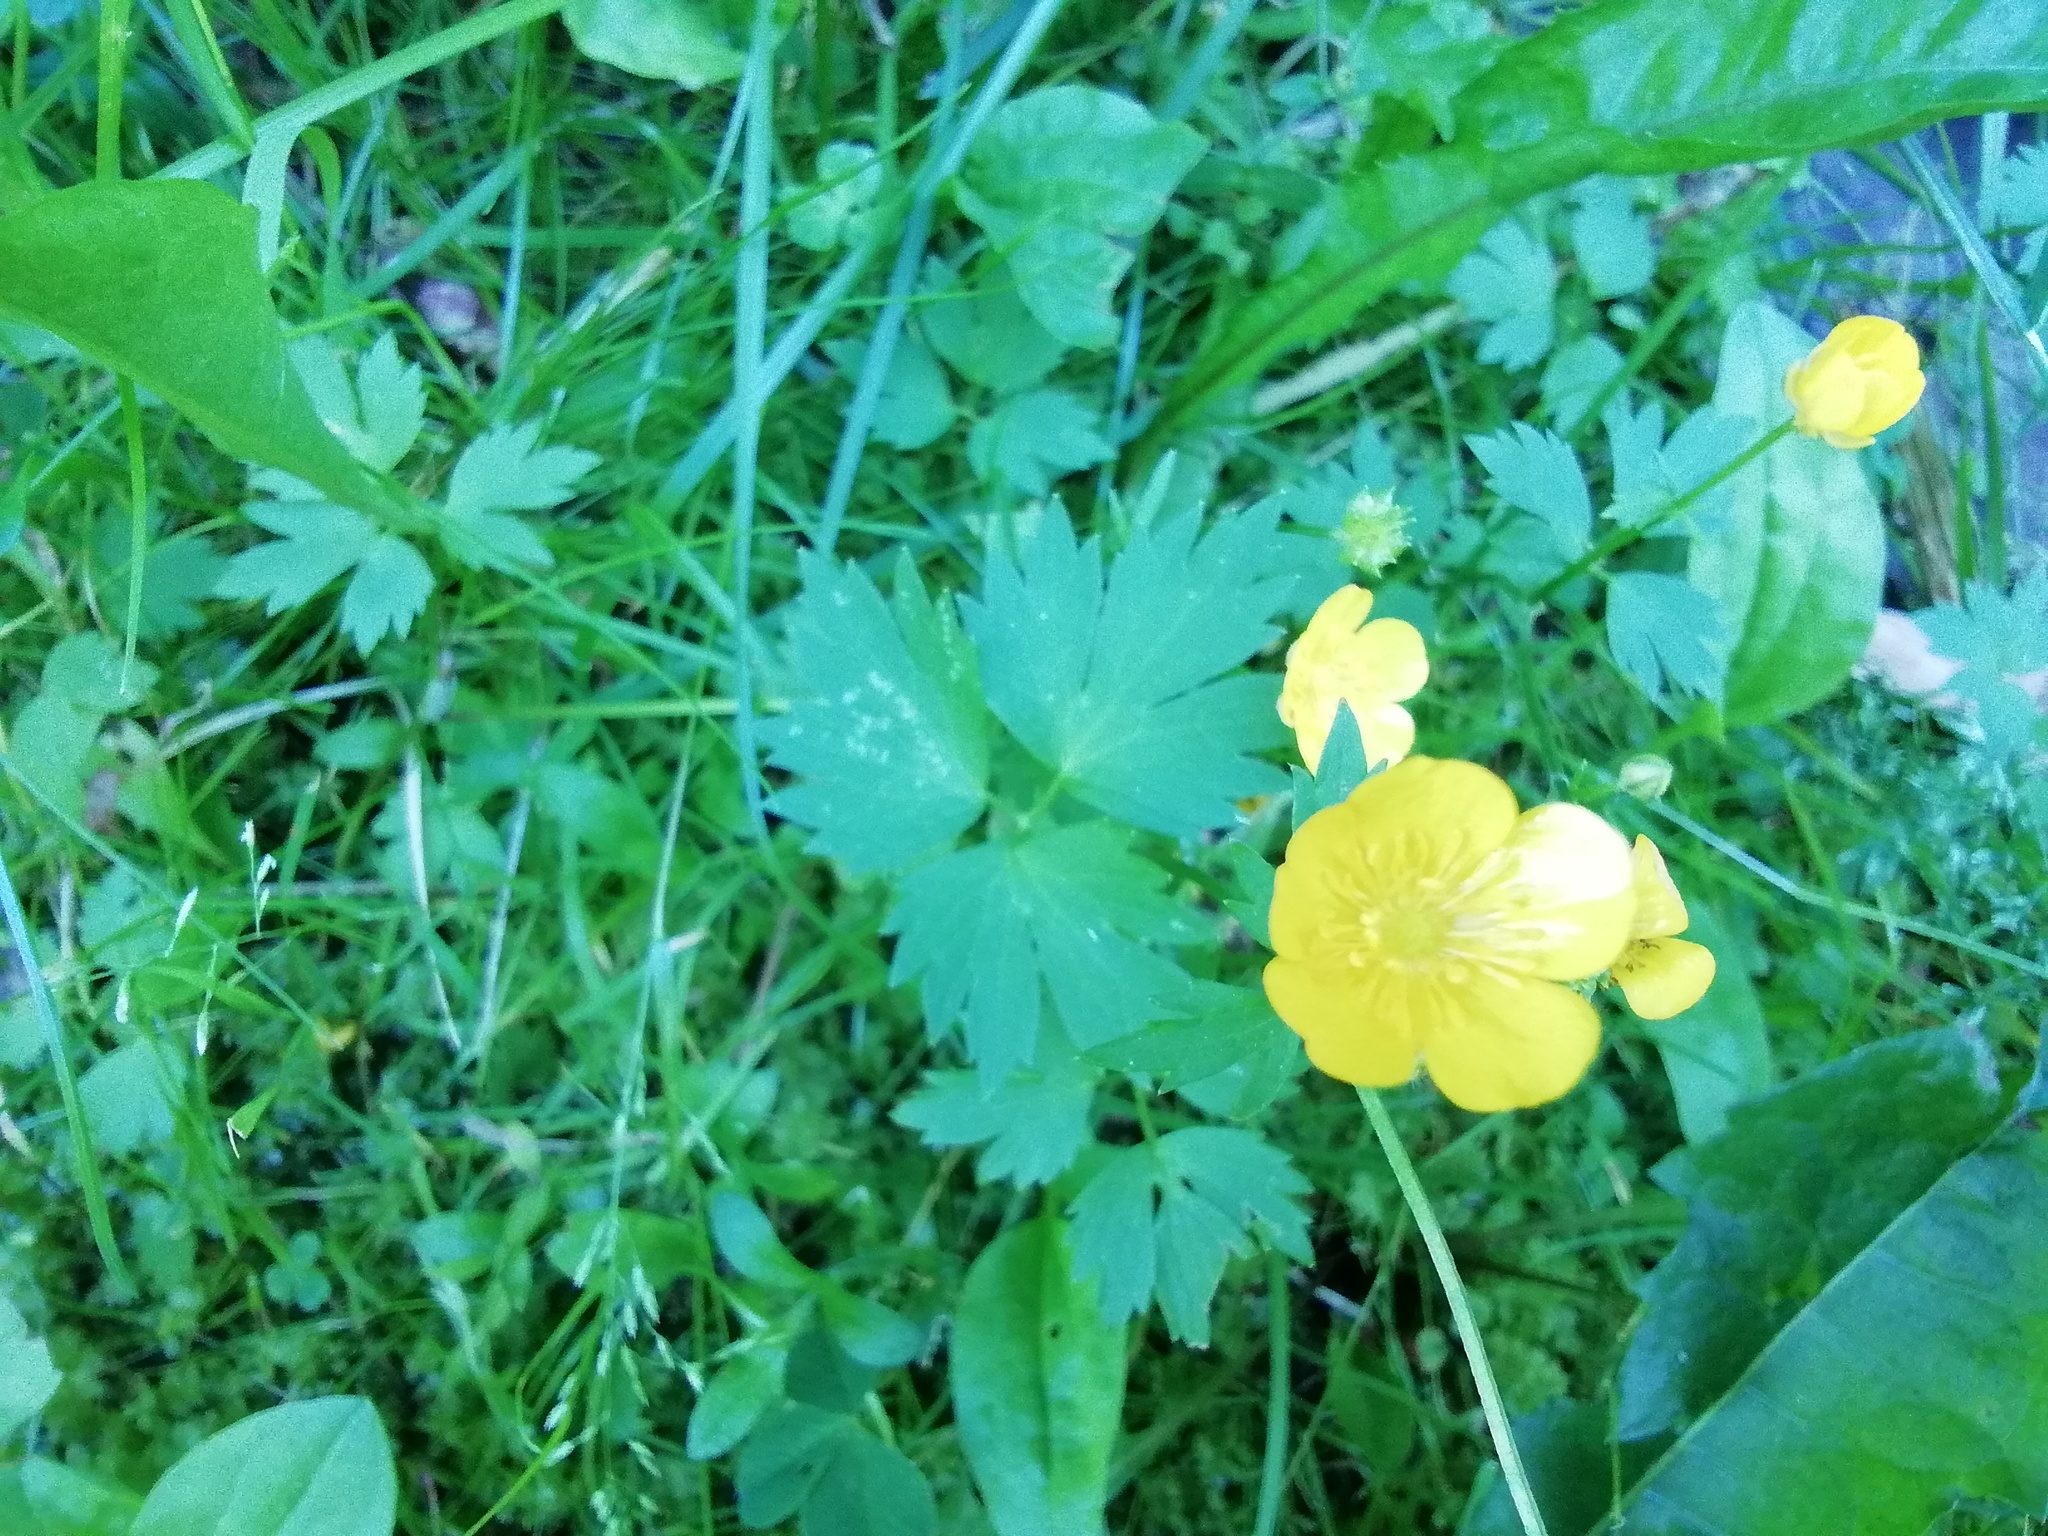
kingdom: Plantae
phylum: Tracheophyta
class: Magnoliopsida
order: Ranunculales
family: Ranunculaceae
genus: Ranunculus
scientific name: Ranunculus repens
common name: Creeping buttercup
